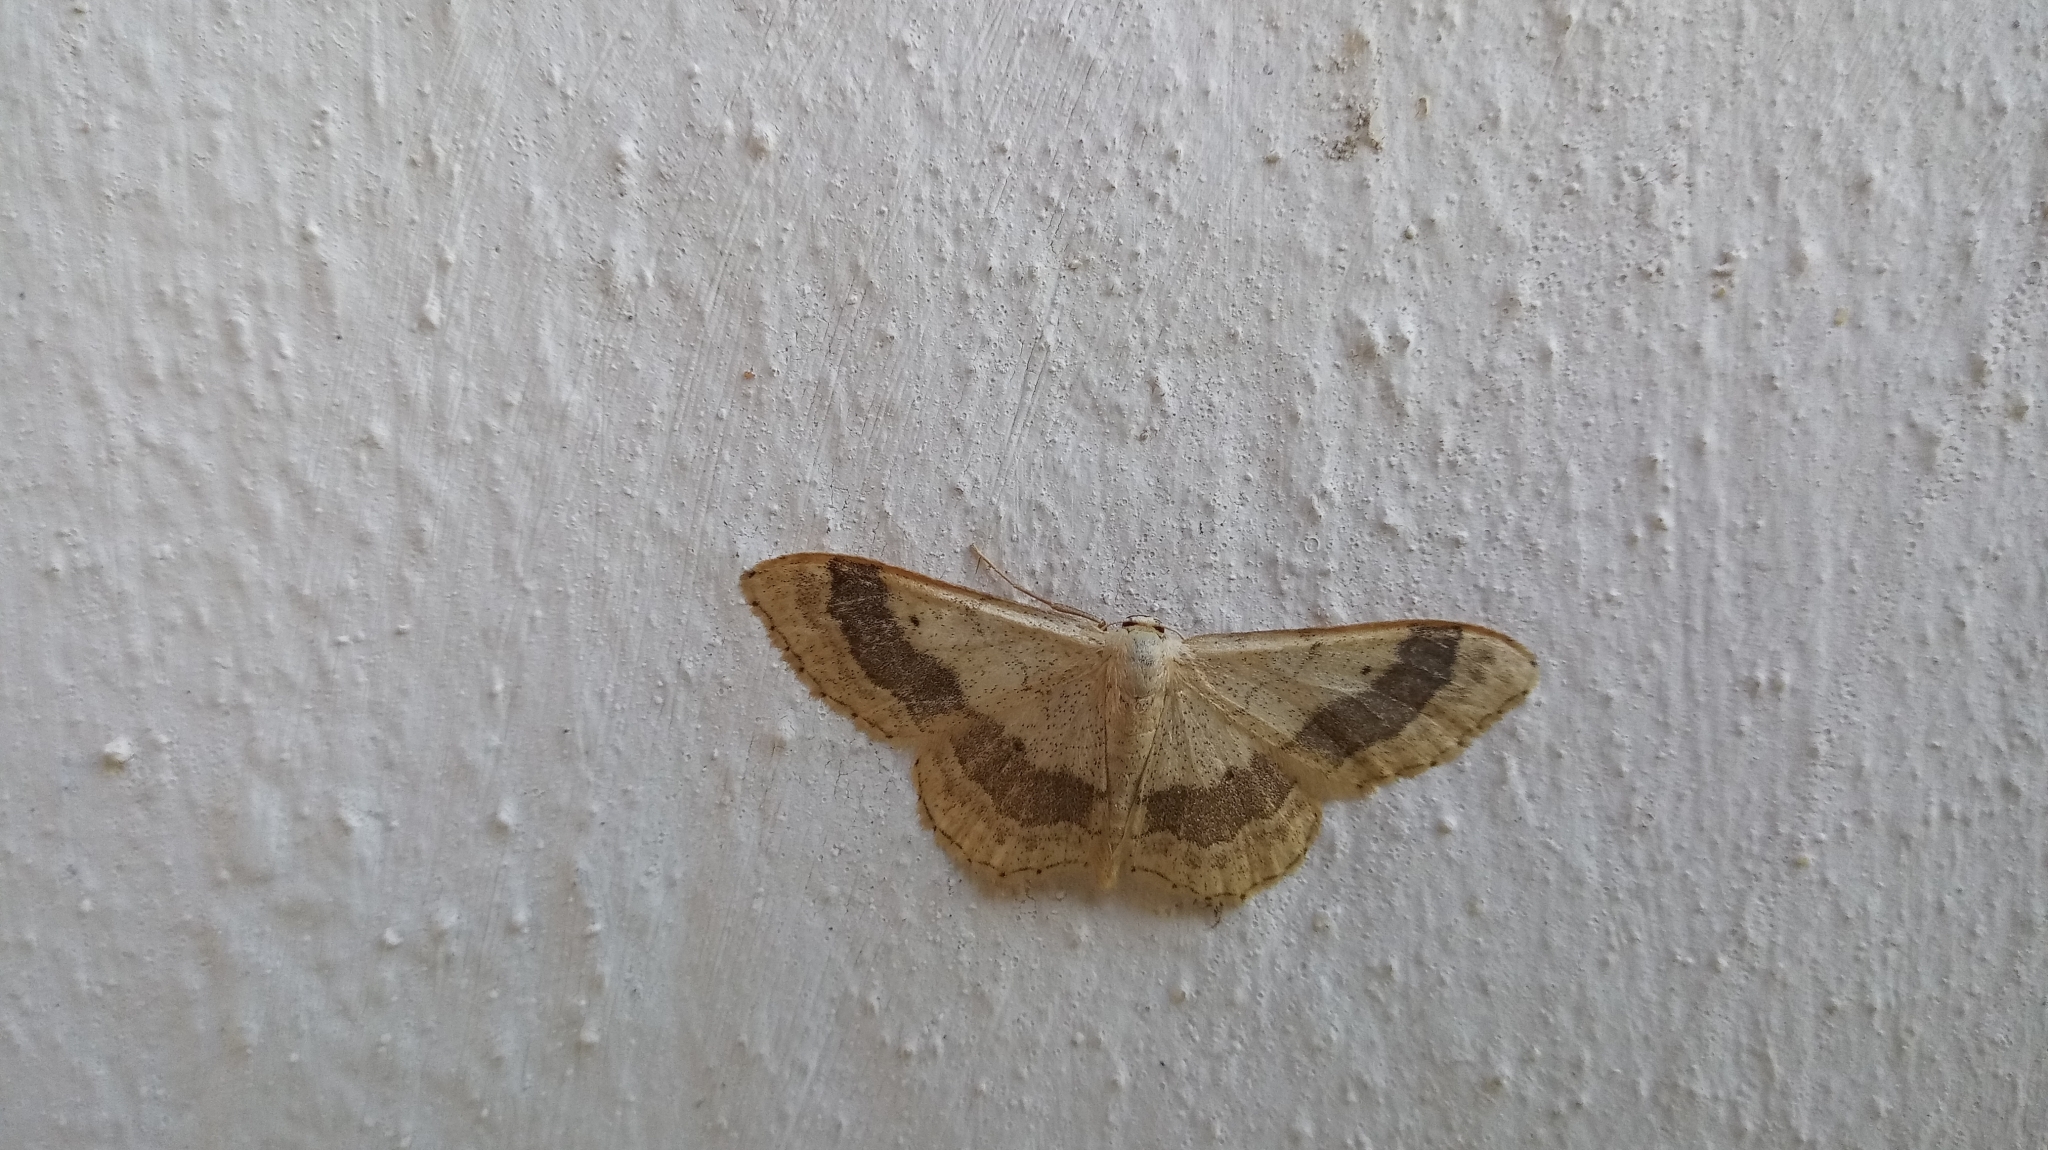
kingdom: Animalia
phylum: Arthropoda
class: Insecta
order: Lepidoptera
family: Geometridae
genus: Idaea
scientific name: Idaea aversata
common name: Riband wave
